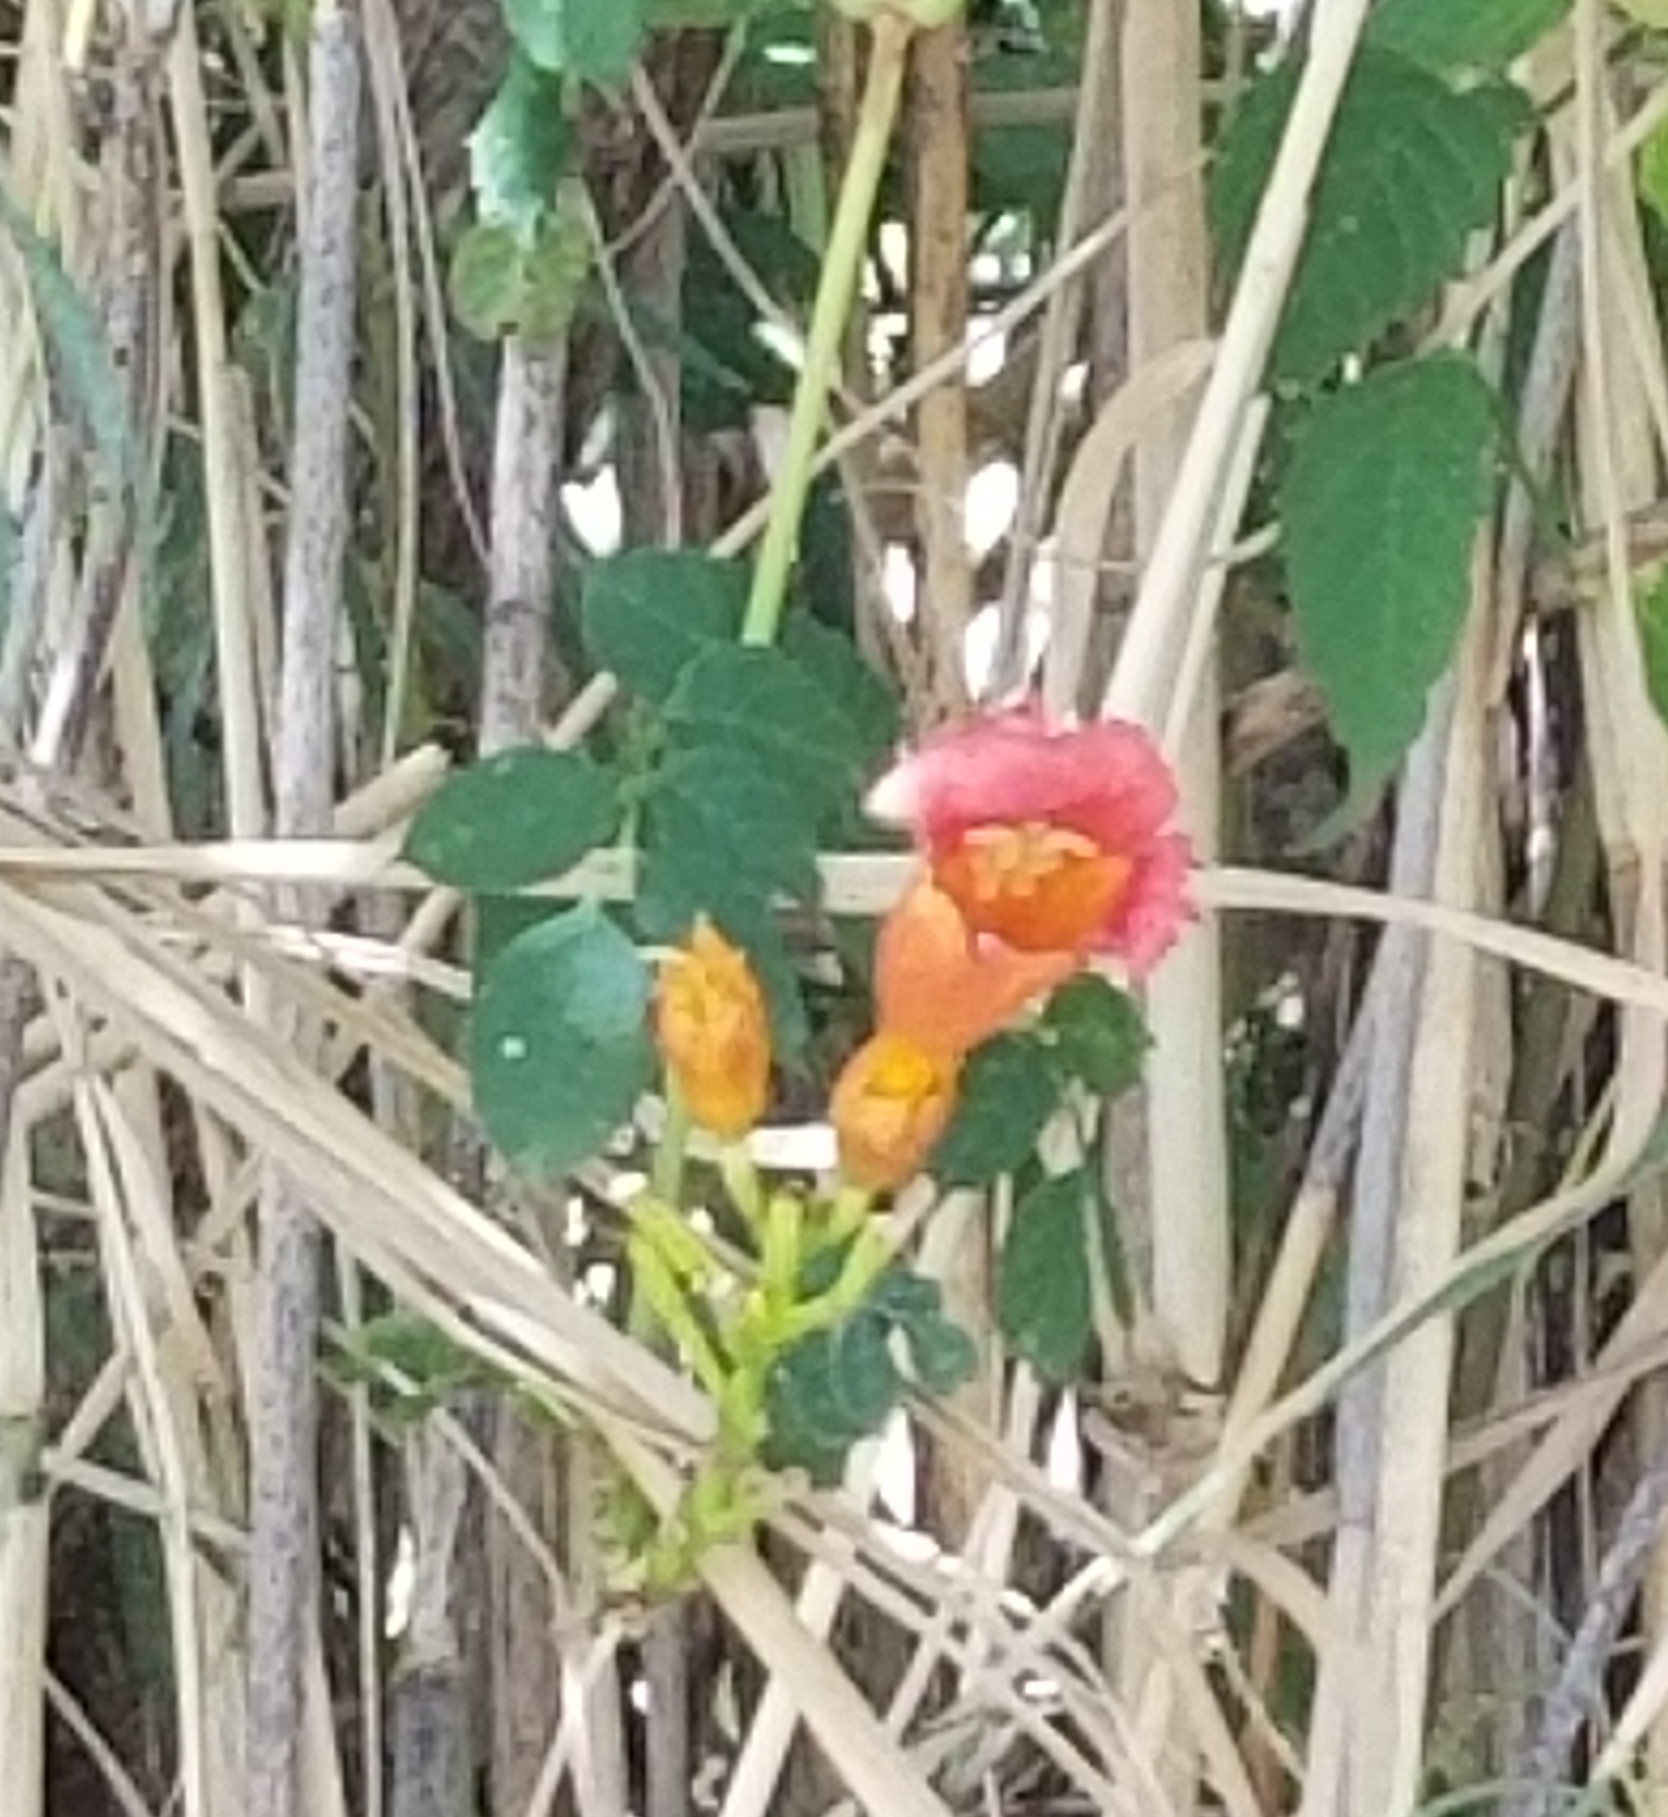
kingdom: Plantae
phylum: Tracheophyta
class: Magnoliopsida
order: Lamiales
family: Bignoniaceae
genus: Campsis
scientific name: Campsis radicans
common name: Trumpet-creeper
